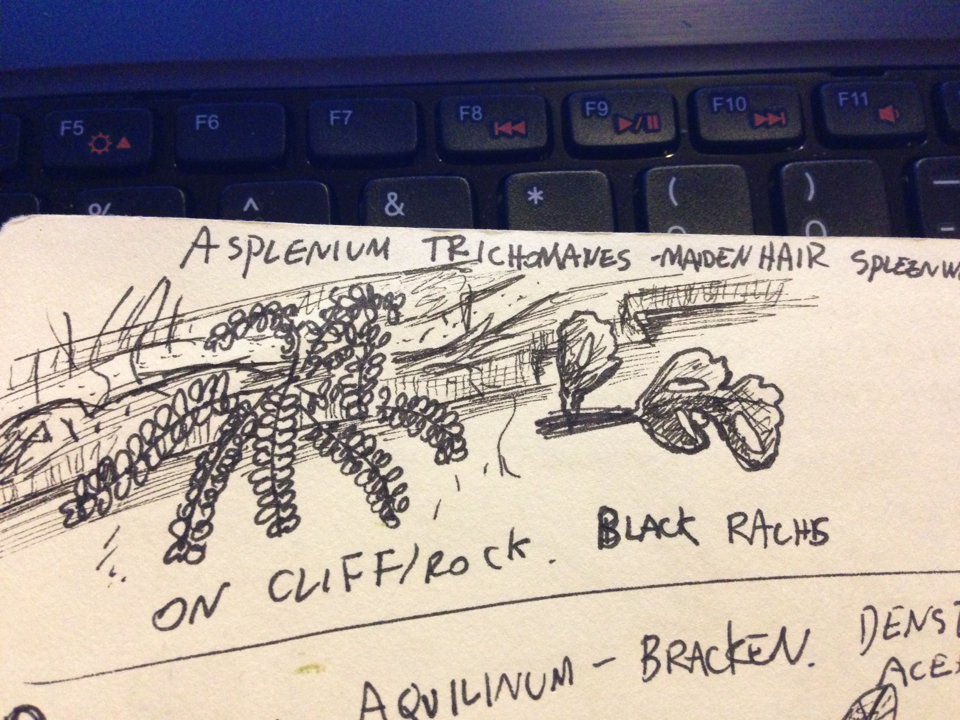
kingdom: Plantae
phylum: Tracheophyta
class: Polypodiopsida
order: Polypodiales
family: Aspleniaceae
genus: Asplenium
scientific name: Asplenium trichomanes
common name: Maidenhair spleenwort
